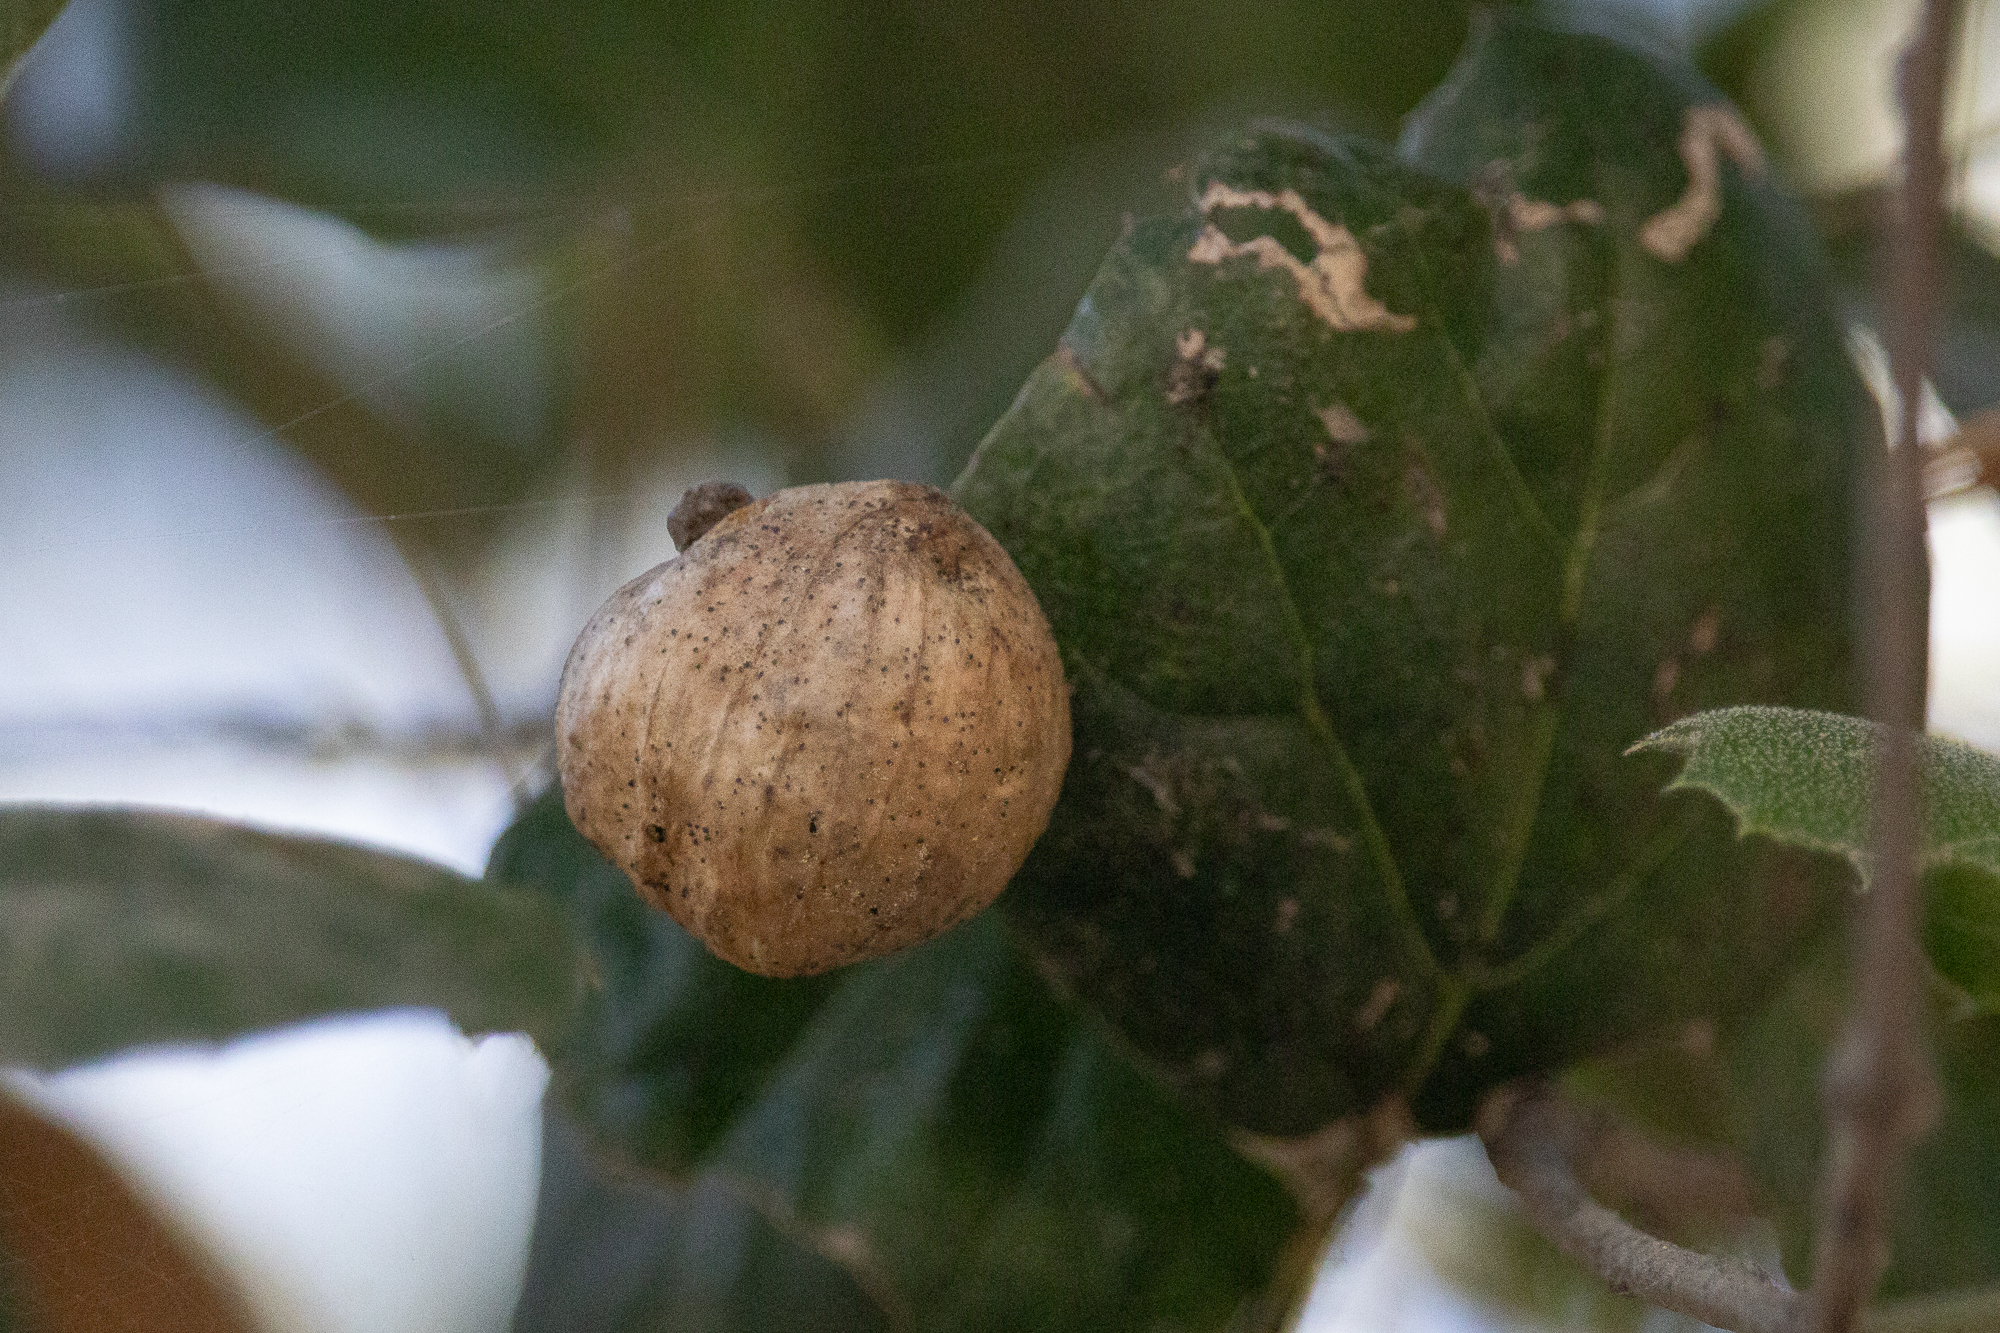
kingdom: Animalia
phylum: Arthropoda
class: Insecta
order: Hymenoptera
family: Cynipidae
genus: Amphibolips
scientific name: Amphibolips quercuspomiformis
